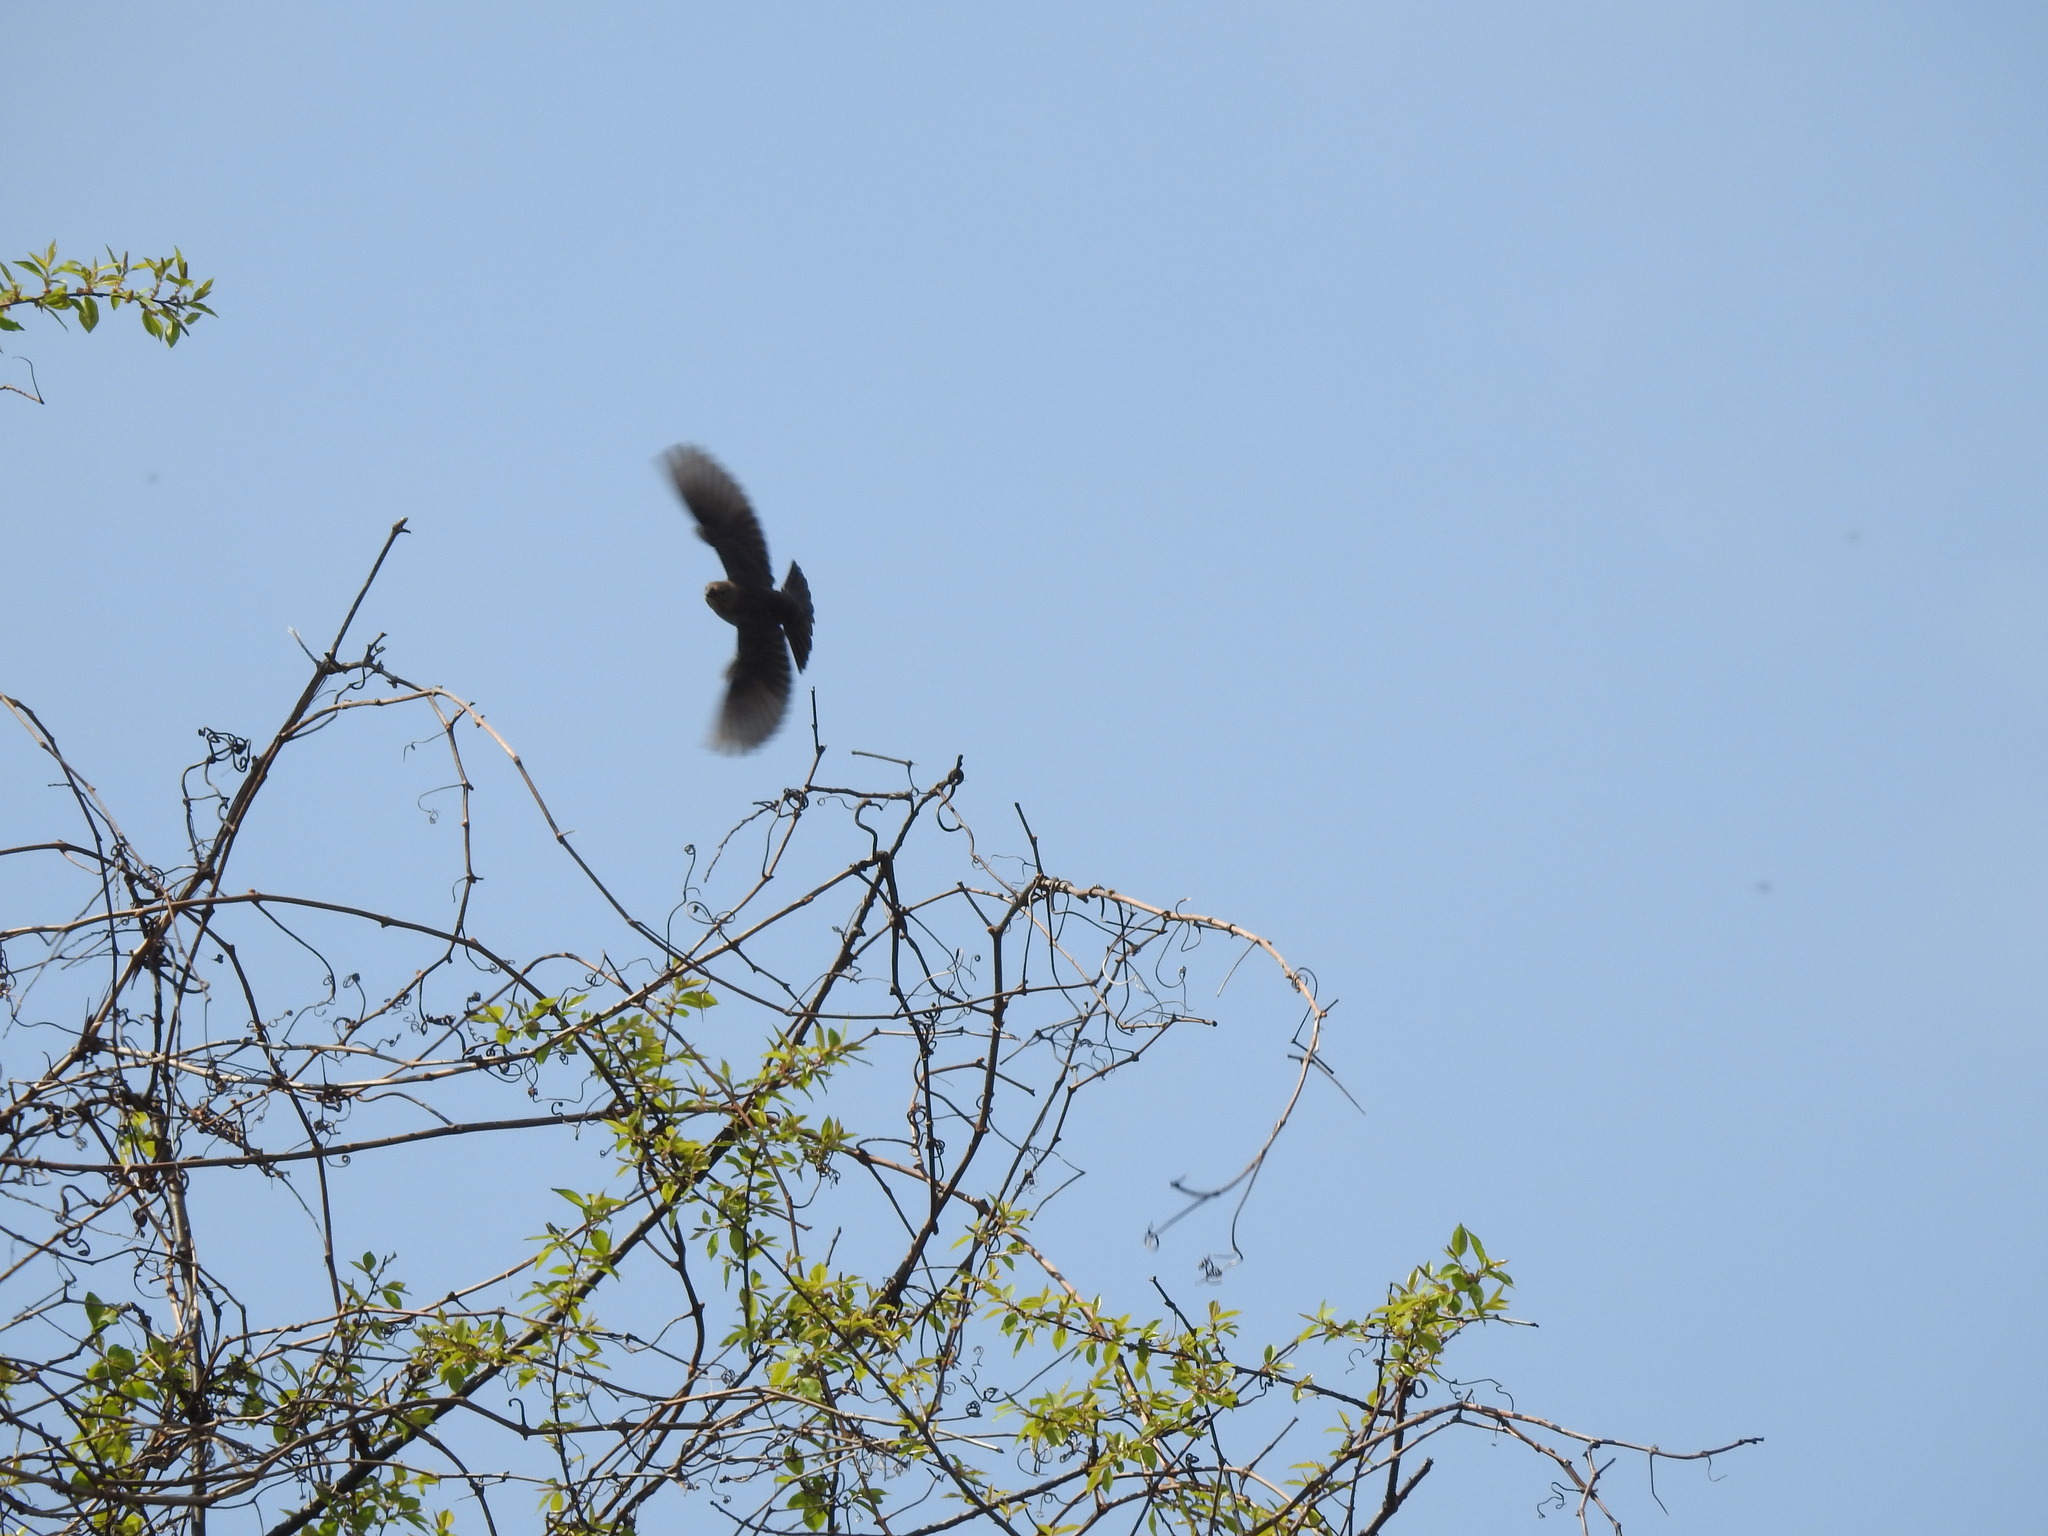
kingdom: Animalia
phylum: Chordata
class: Aves
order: Passeriformes
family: Icteridae
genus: Molothrus
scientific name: Molothrus ater
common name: Brown-headed cowbird
